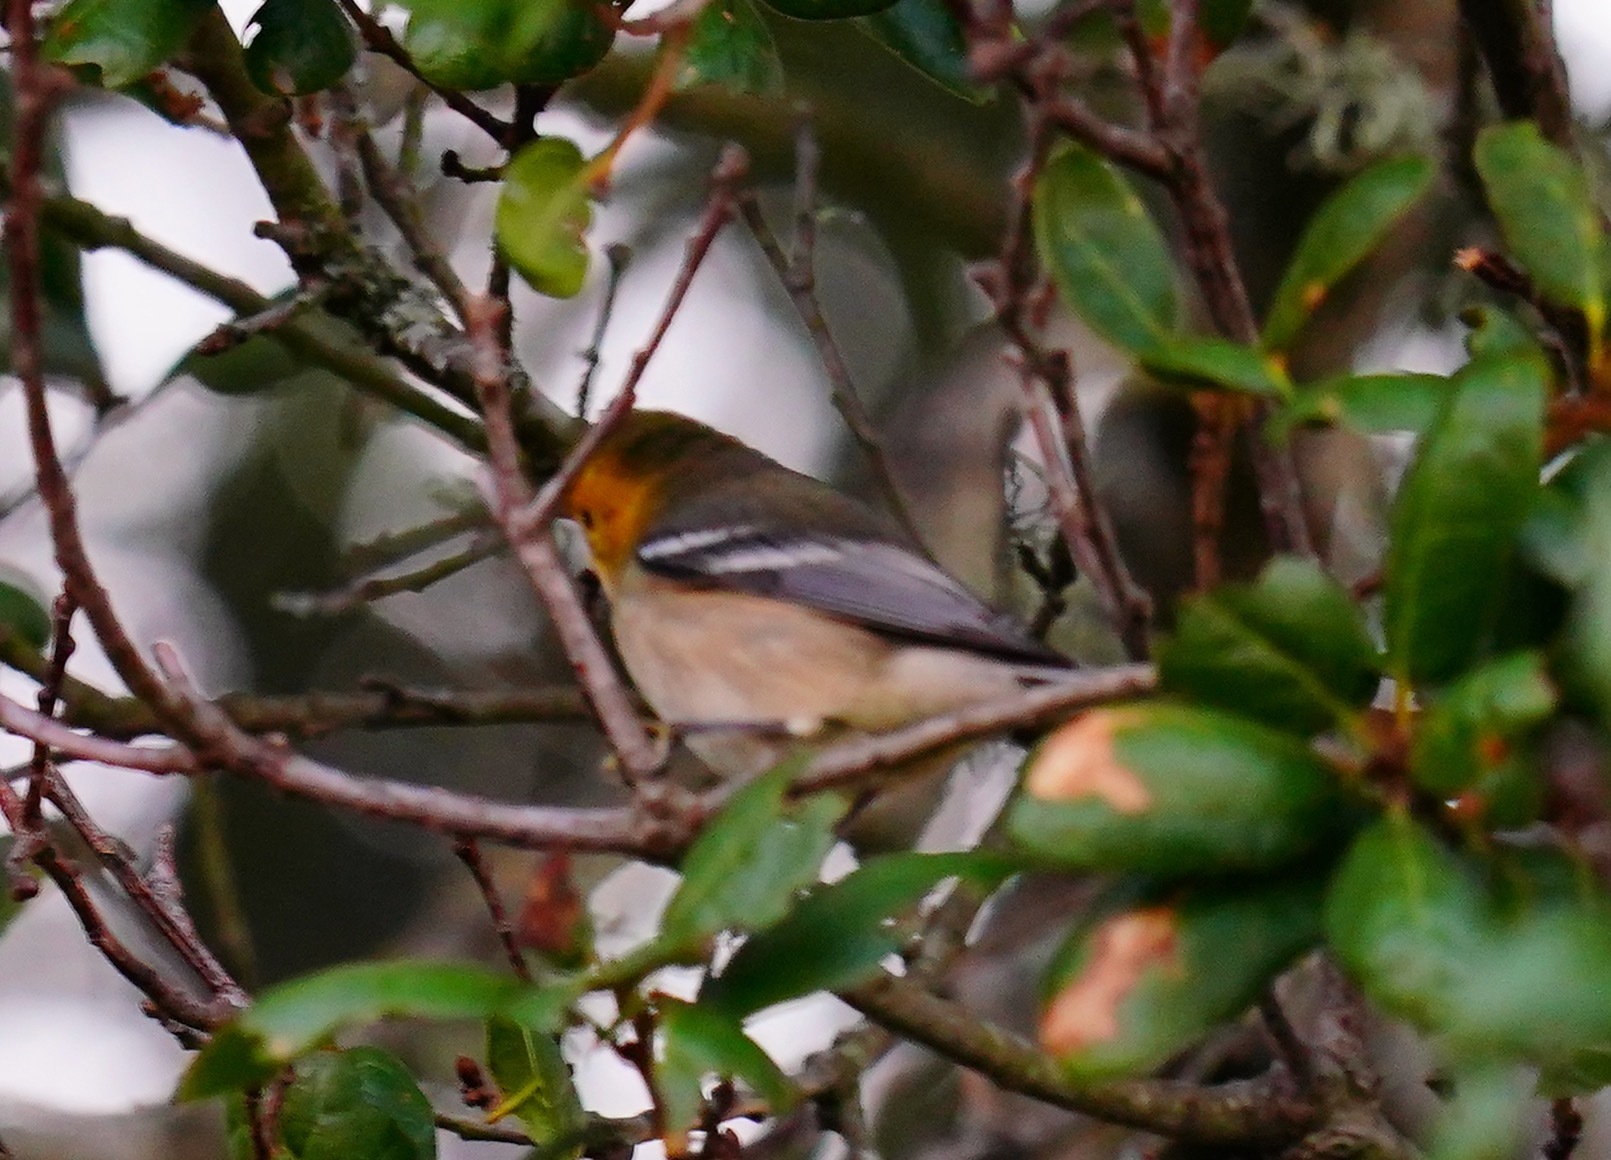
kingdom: Animalia
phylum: Chordata
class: Aves
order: Passeriformes
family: Parulidae
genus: Setophaga
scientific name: Setophaga occidentalis
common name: Hermit warbler
